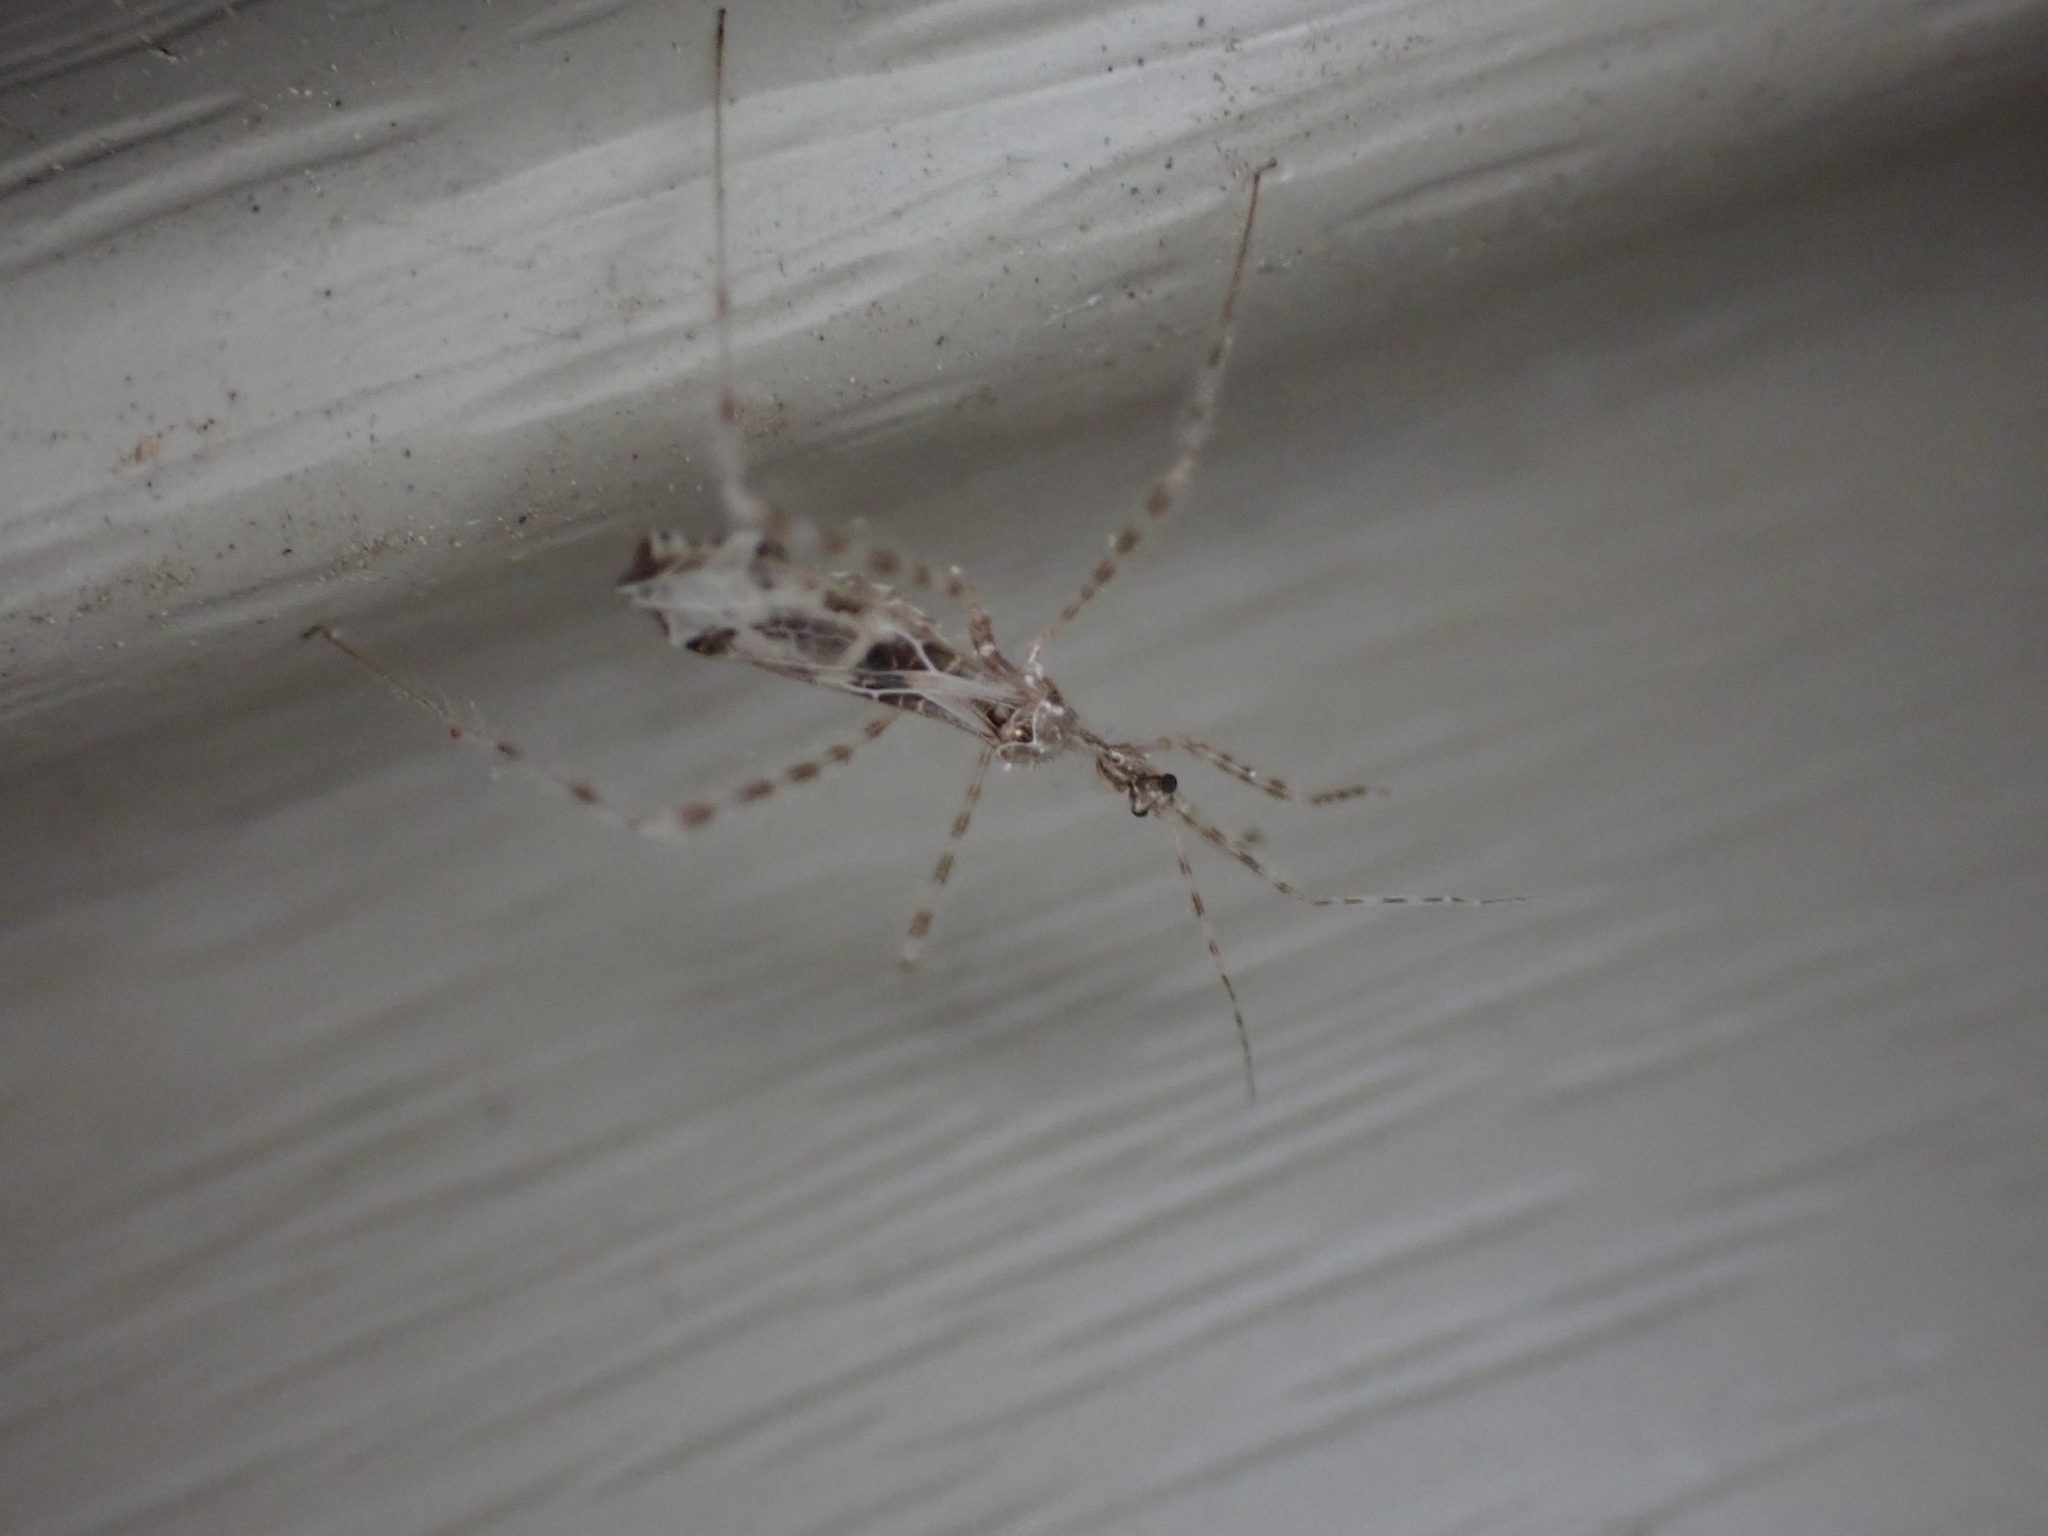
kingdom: Animalia
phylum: Arthropoda
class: Insecta
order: Hemiptera
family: Reduviidae
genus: Stenolemus
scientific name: Stenolemus lanipes
